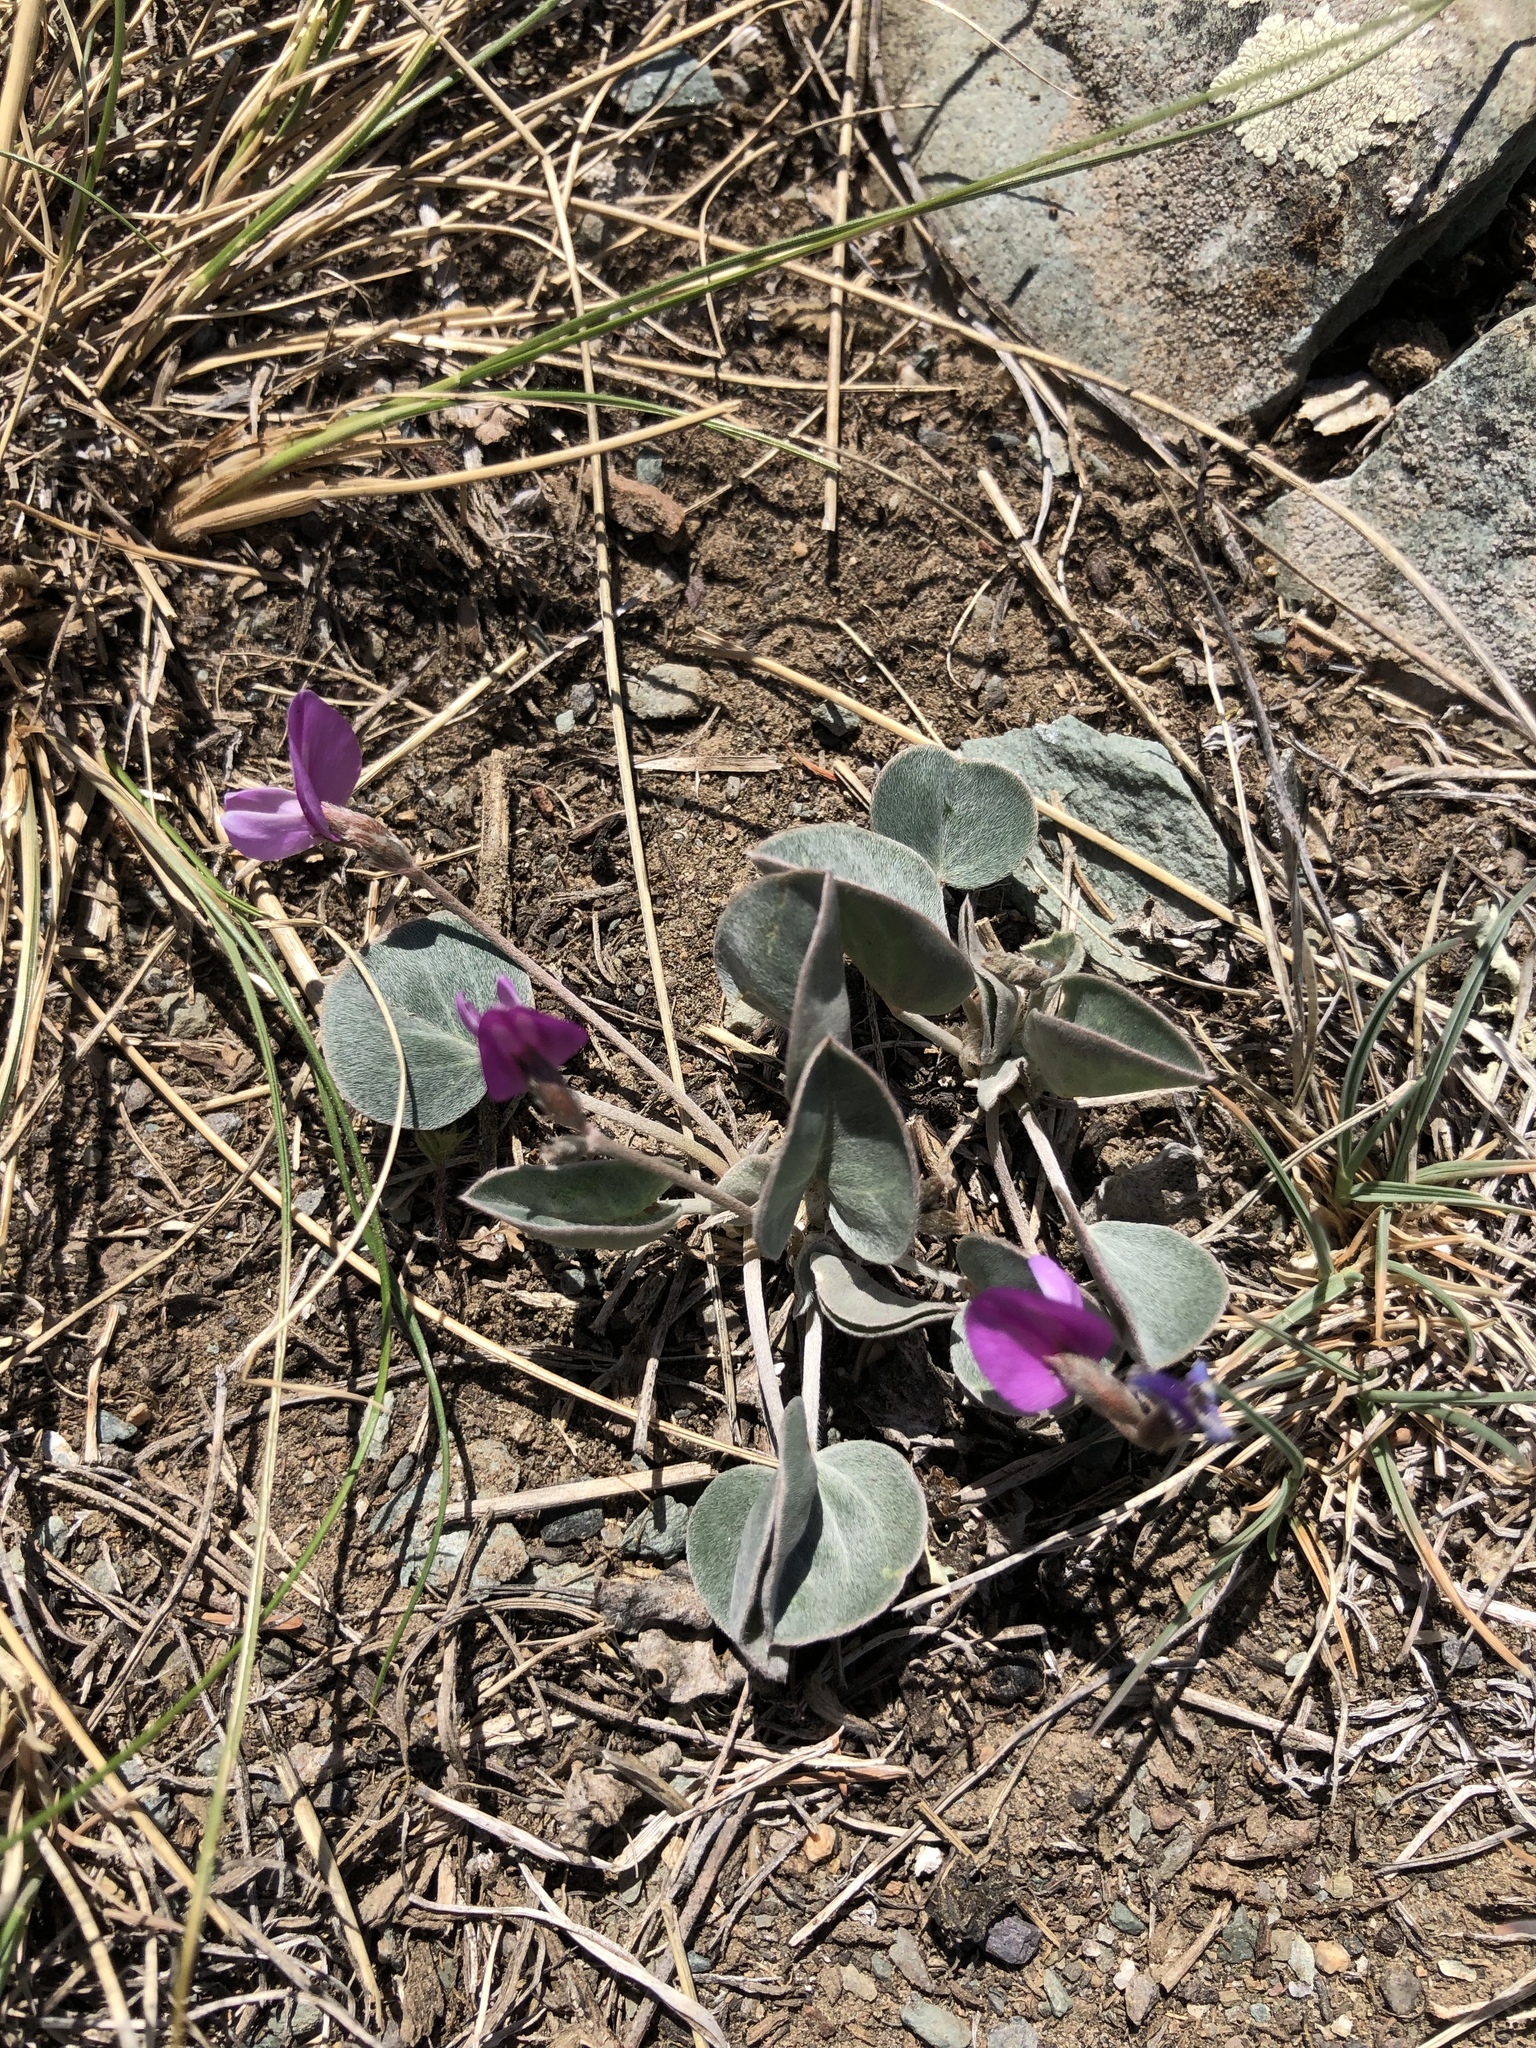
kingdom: Plantae
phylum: Tracheophyta
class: Magnoliopsida
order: Fabales
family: Fabaceae
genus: Gueldenstaedtia
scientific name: Gueldenstaedtia monophylla
